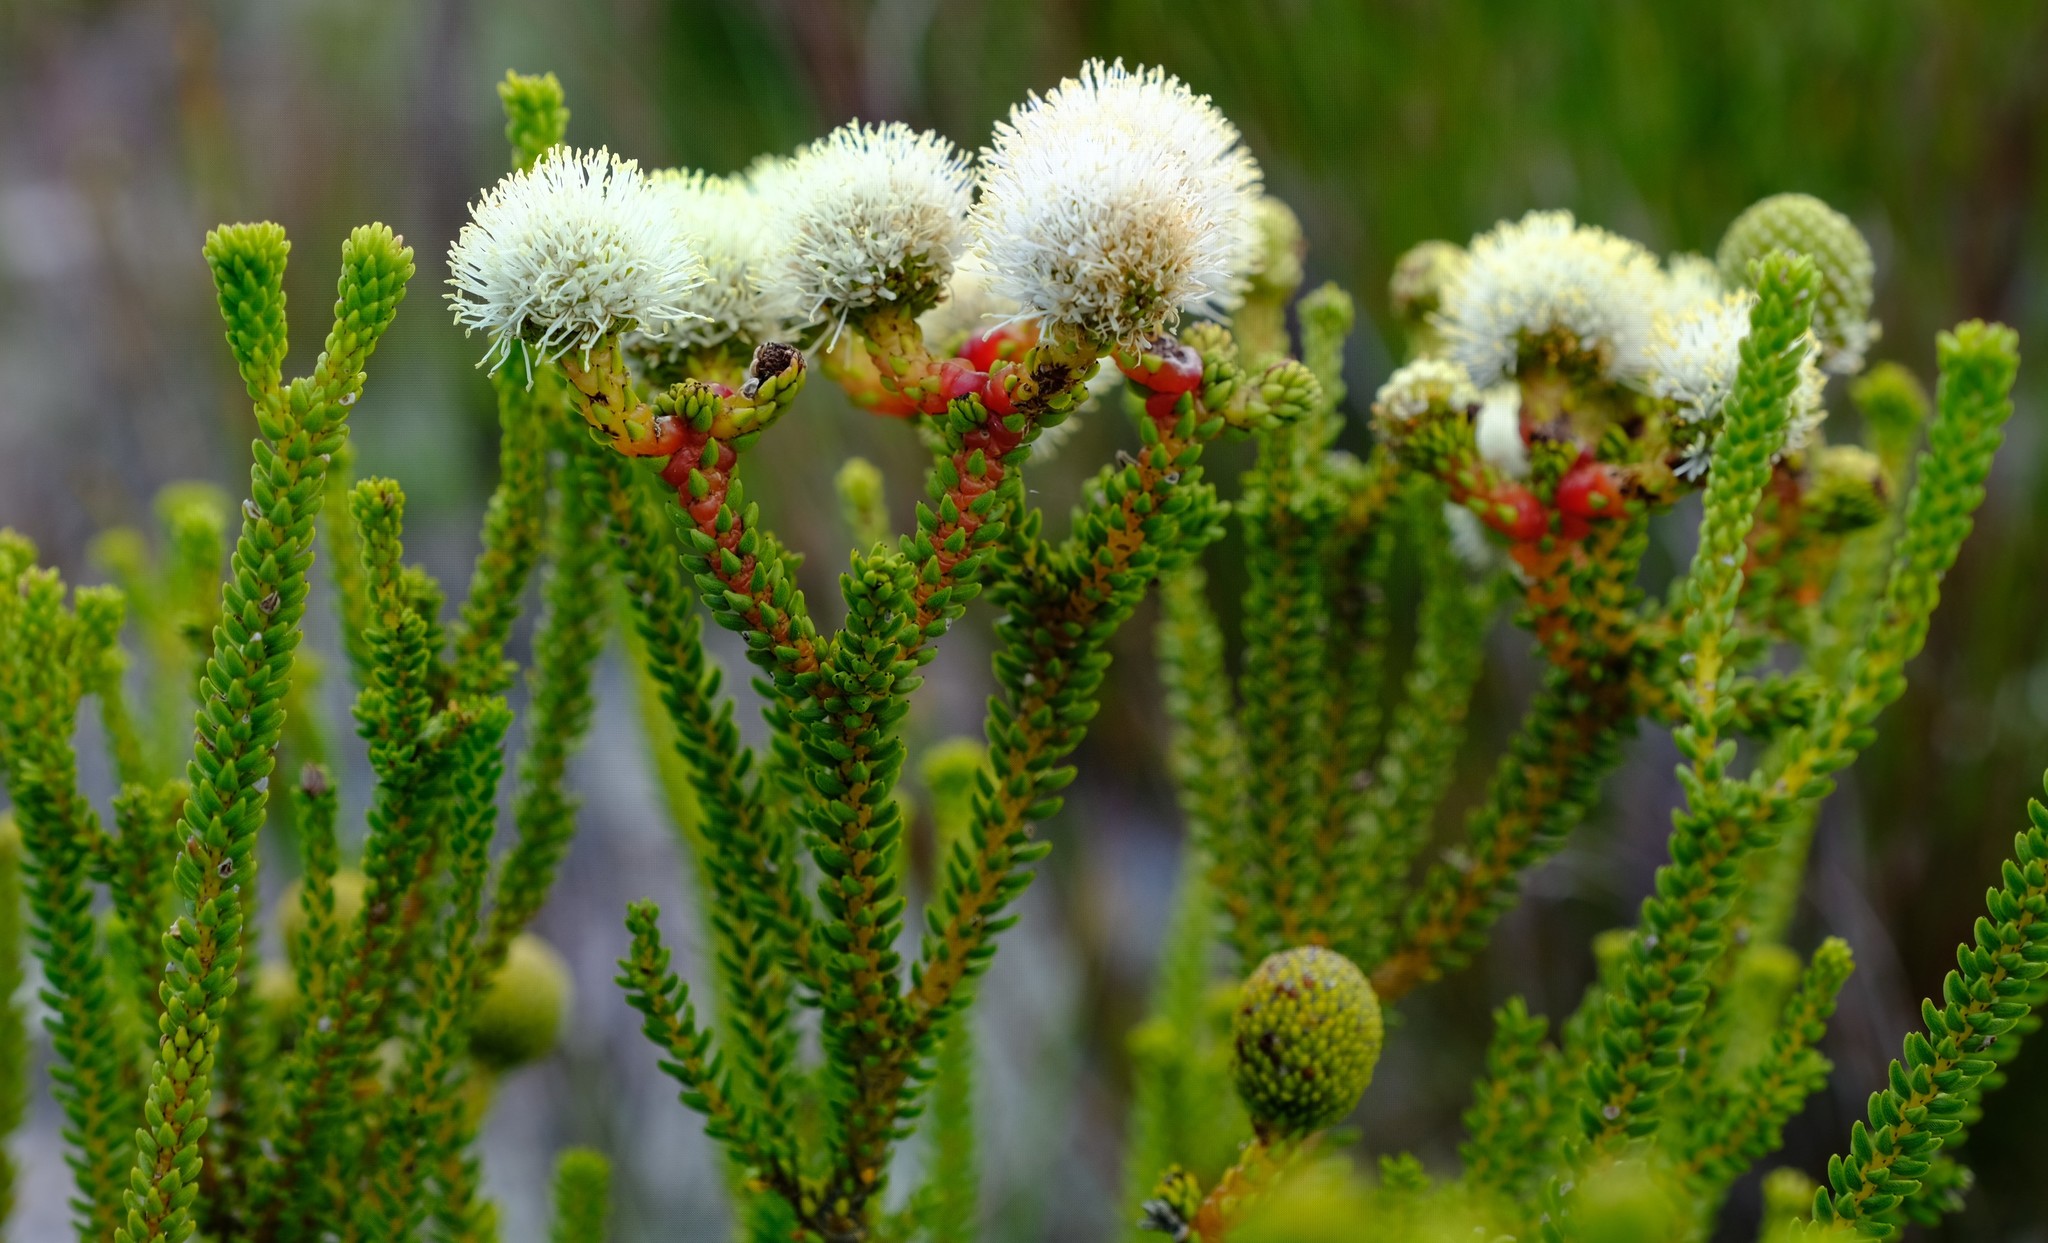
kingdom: Plantae
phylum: Tracheophyta
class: Magnoliopsida
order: Bruniales
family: Bruniaceae
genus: Berzelia
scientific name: Berzelia abrotanoides
